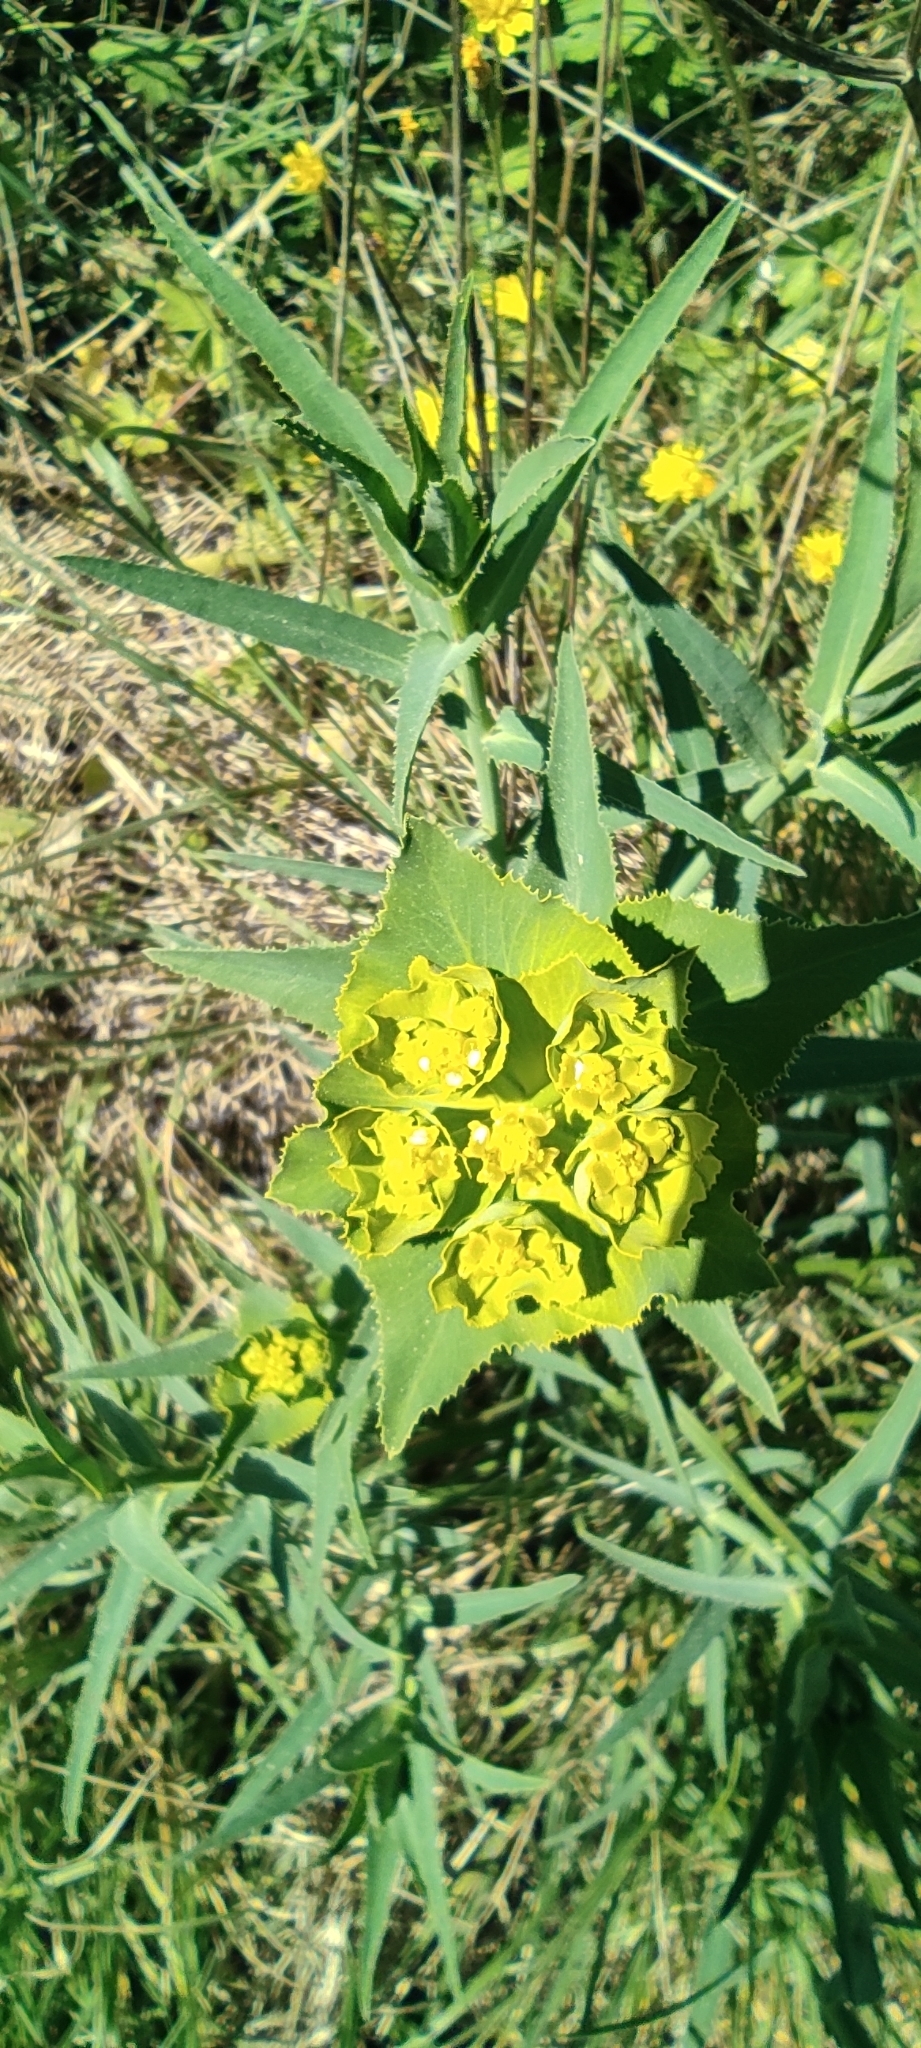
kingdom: Plantae
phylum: Tracheophyta
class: Magnoliopsida
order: Malpighiales
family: Euphorbiaceae
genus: Euphorbia
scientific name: Euphorbia serrata
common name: Serrate spurge
